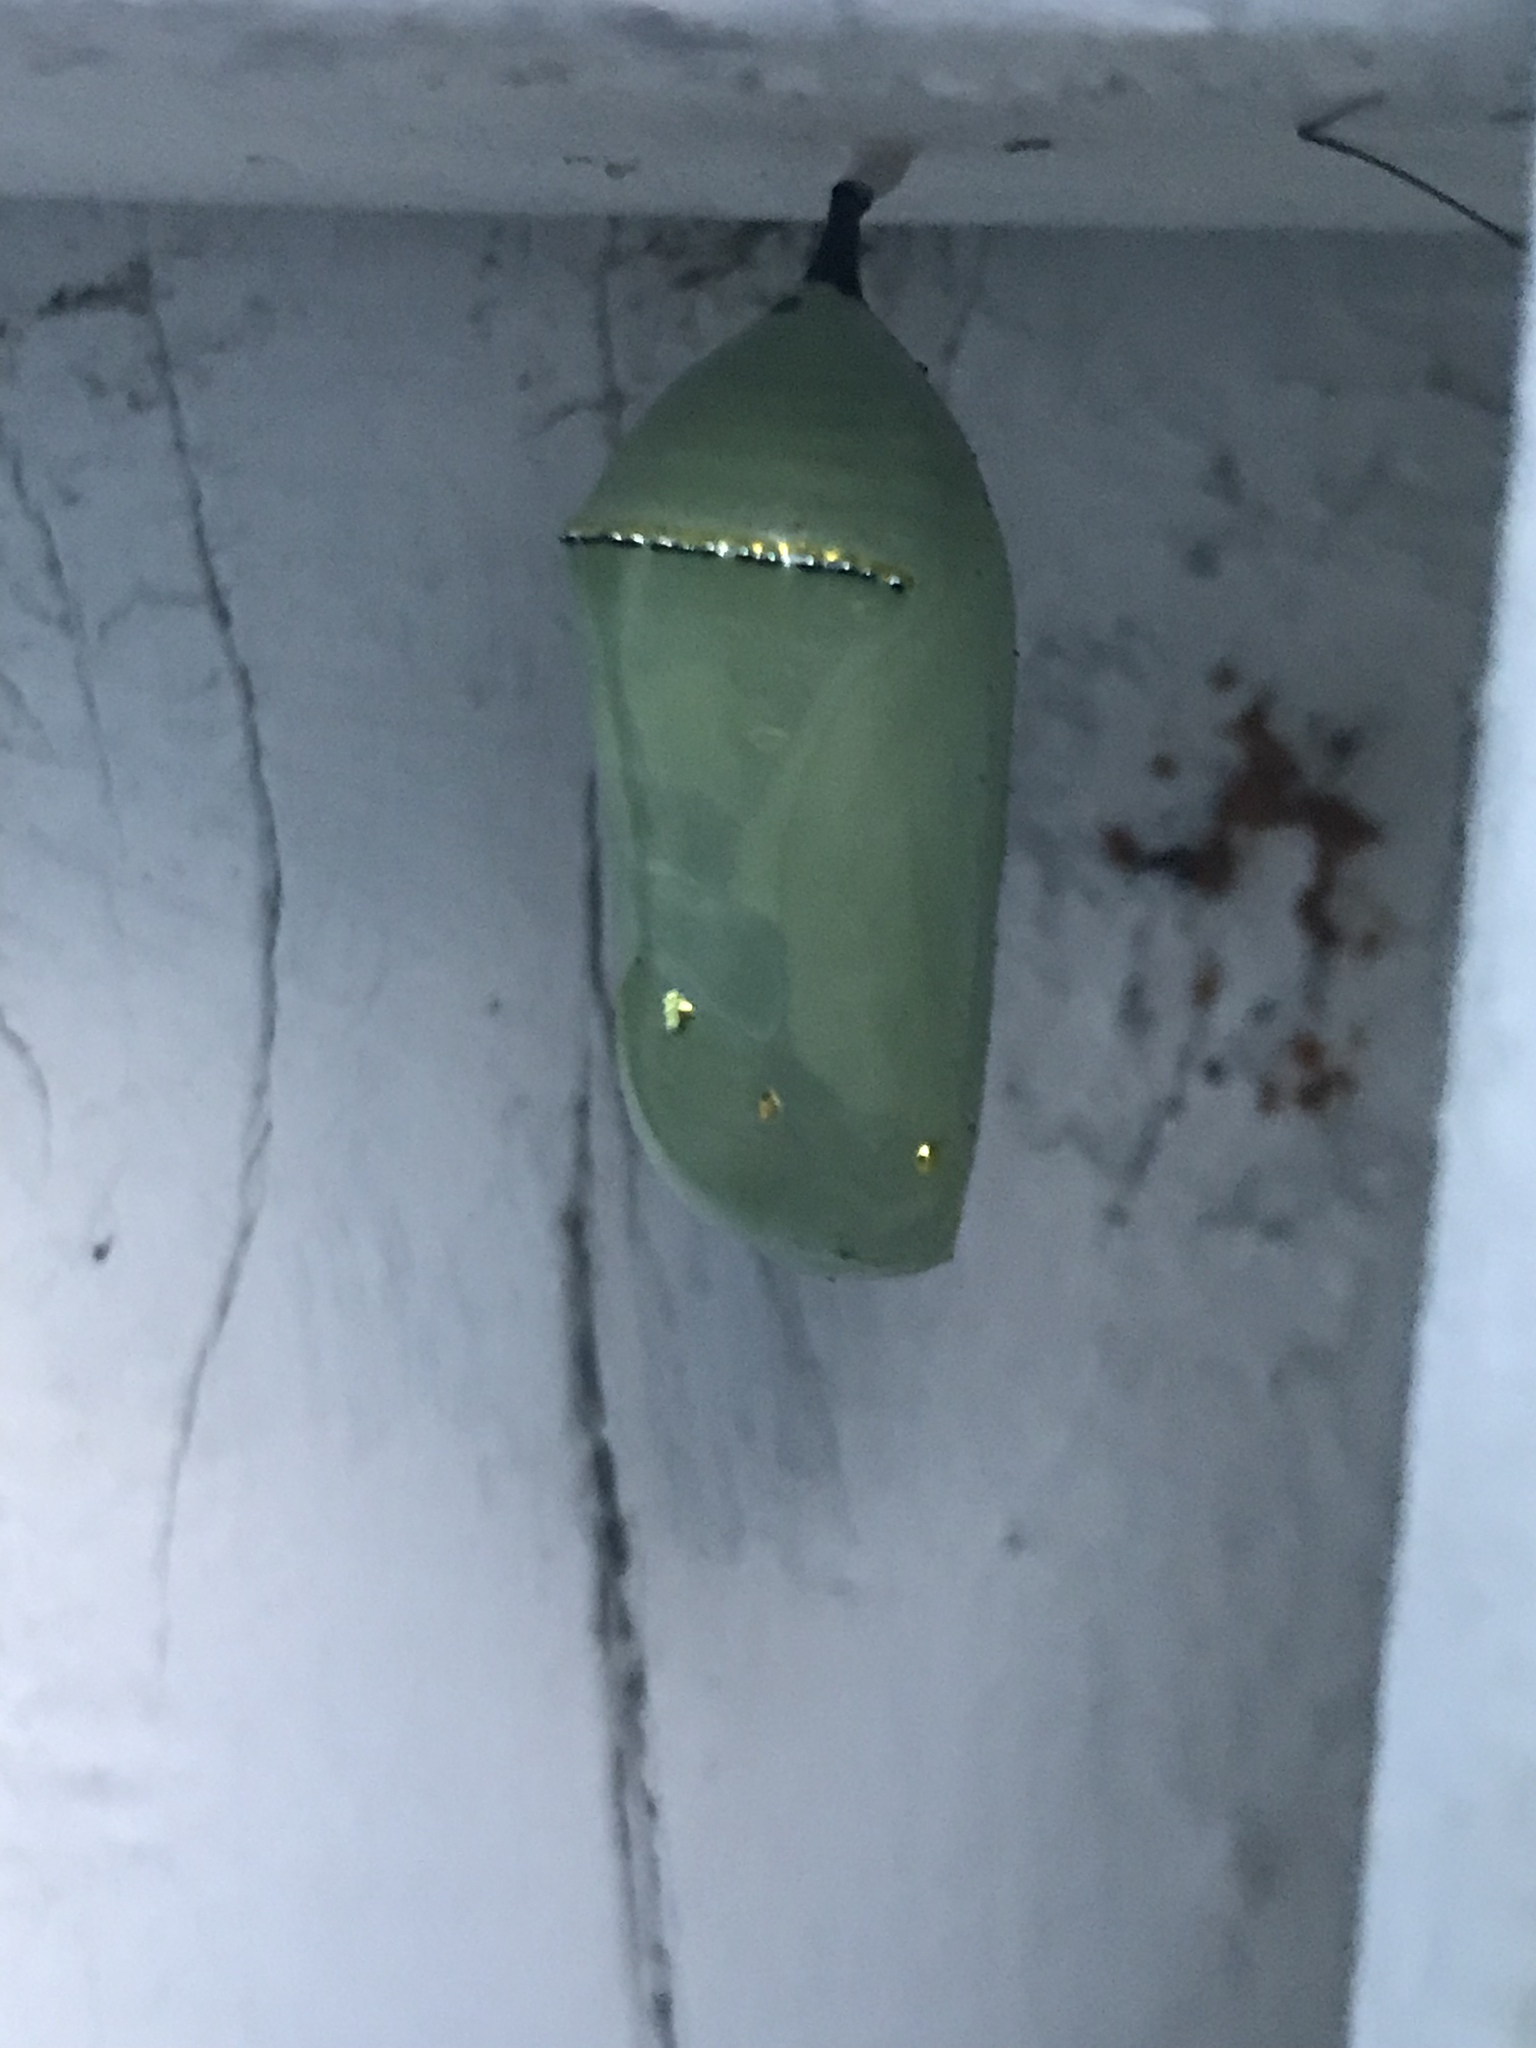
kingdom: Animalia
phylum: Arthropoda
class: Insecta
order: Lepidoptera
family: Nymphalidae
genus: Danaus
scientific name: Danaus plexippus
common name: Monarch
